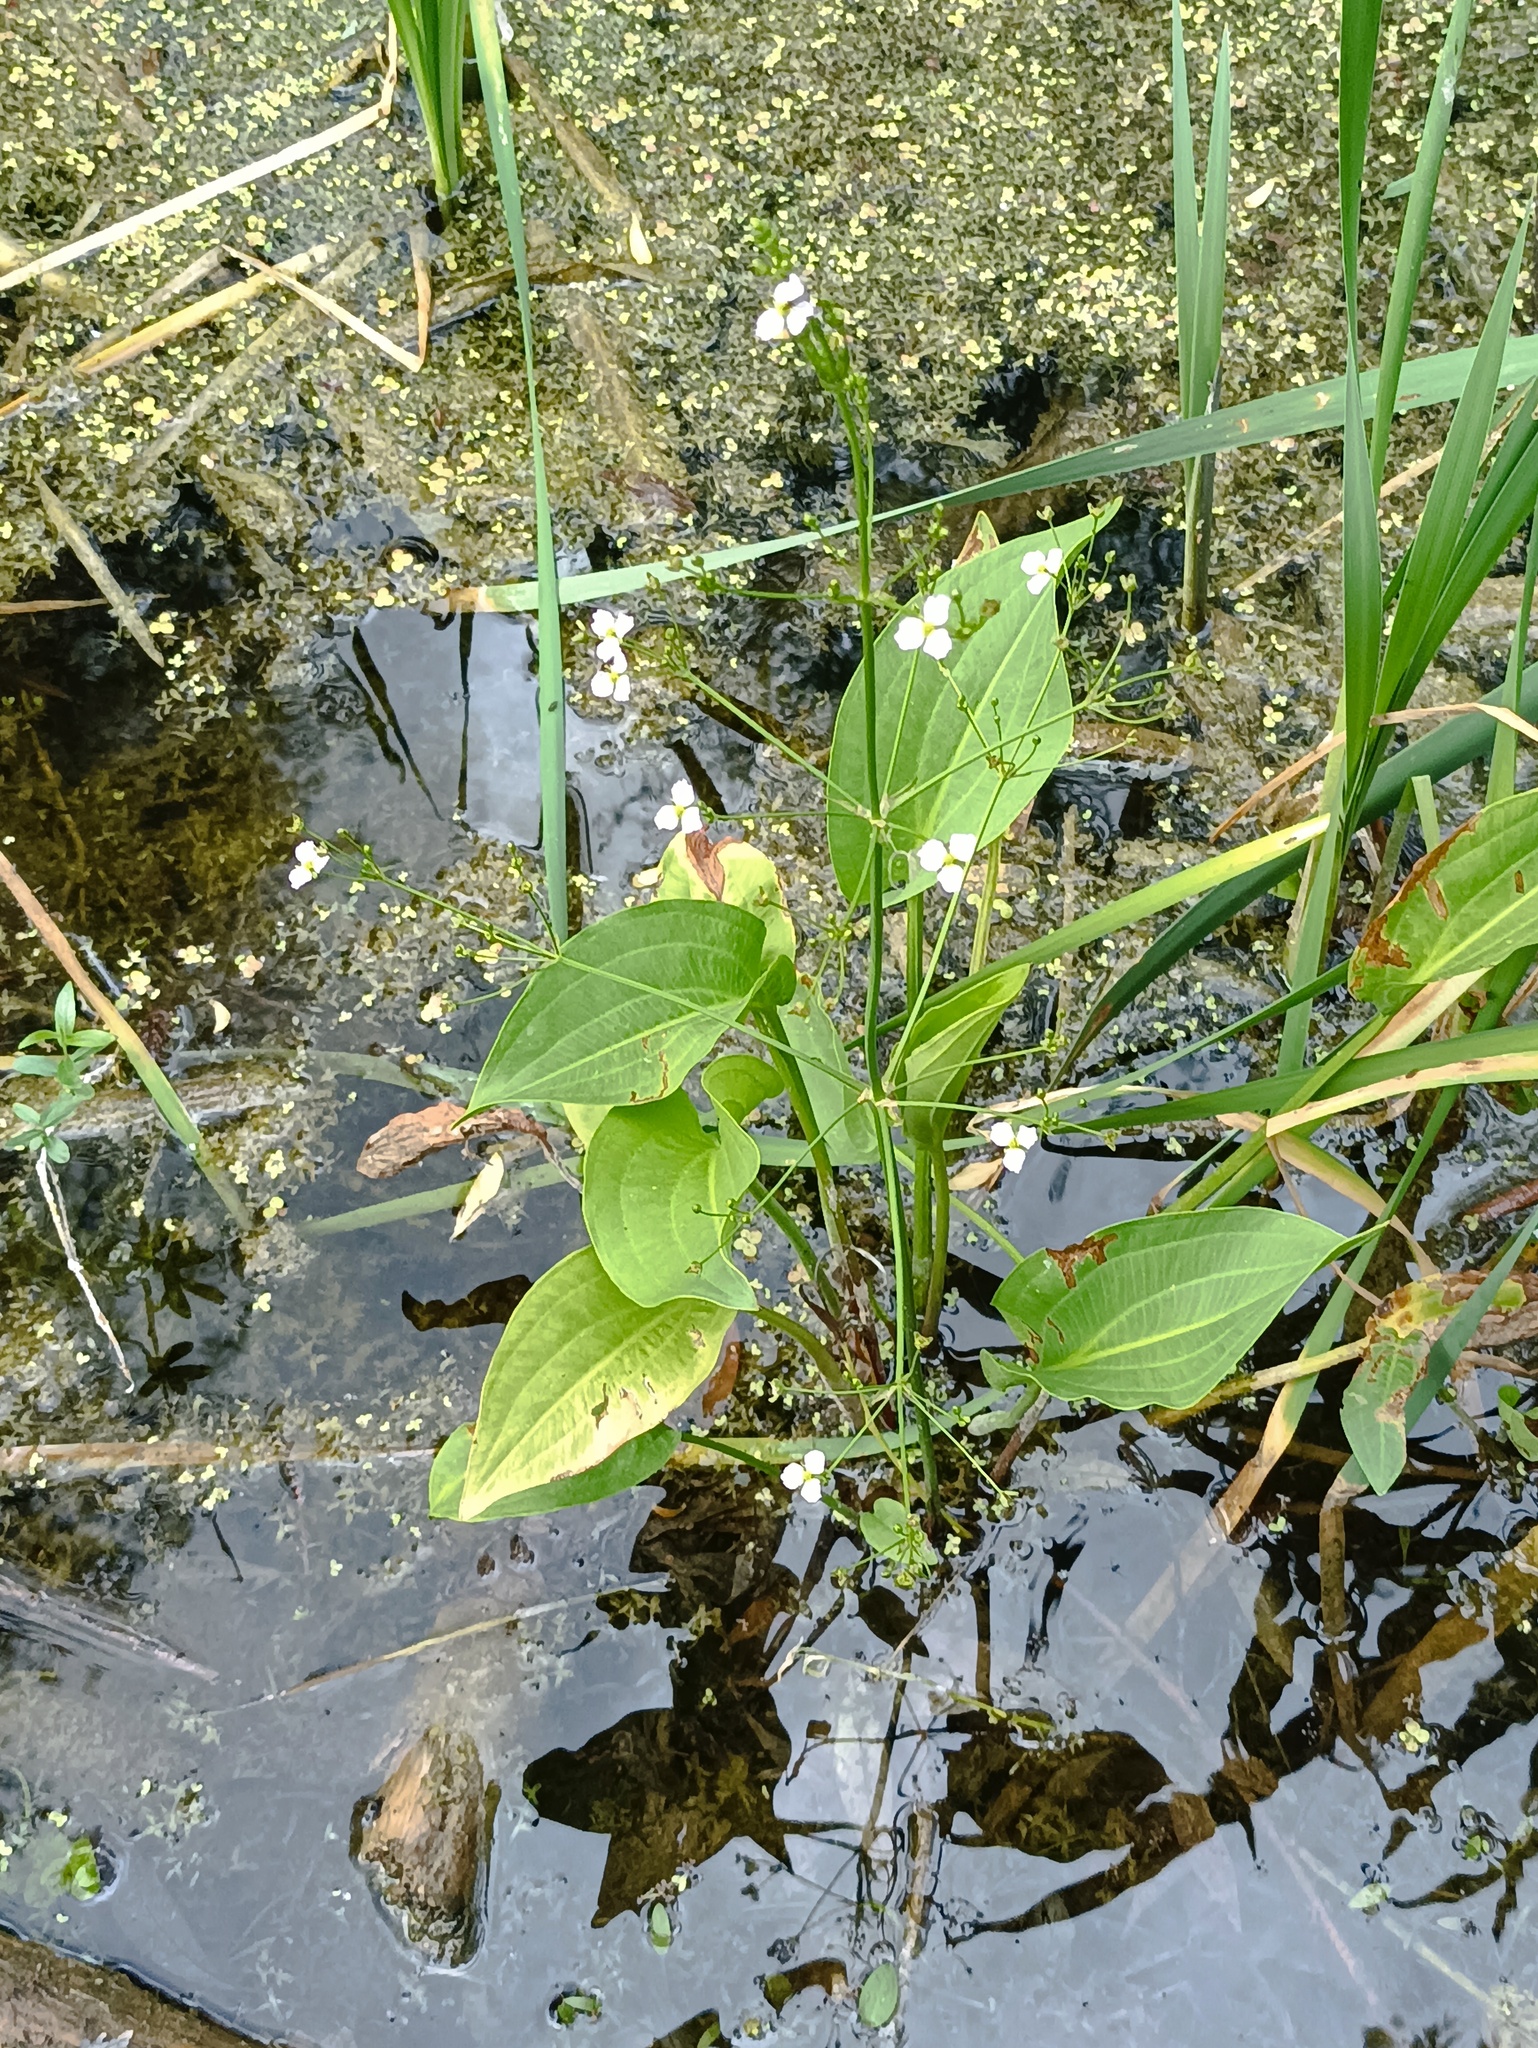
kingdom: Plantae
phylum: Tracheophyta
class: Liliopsida
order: Alismatales
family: Alismataceae
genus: Alisma
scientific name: Alisma plantago-aquatica
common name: Water-plantain
